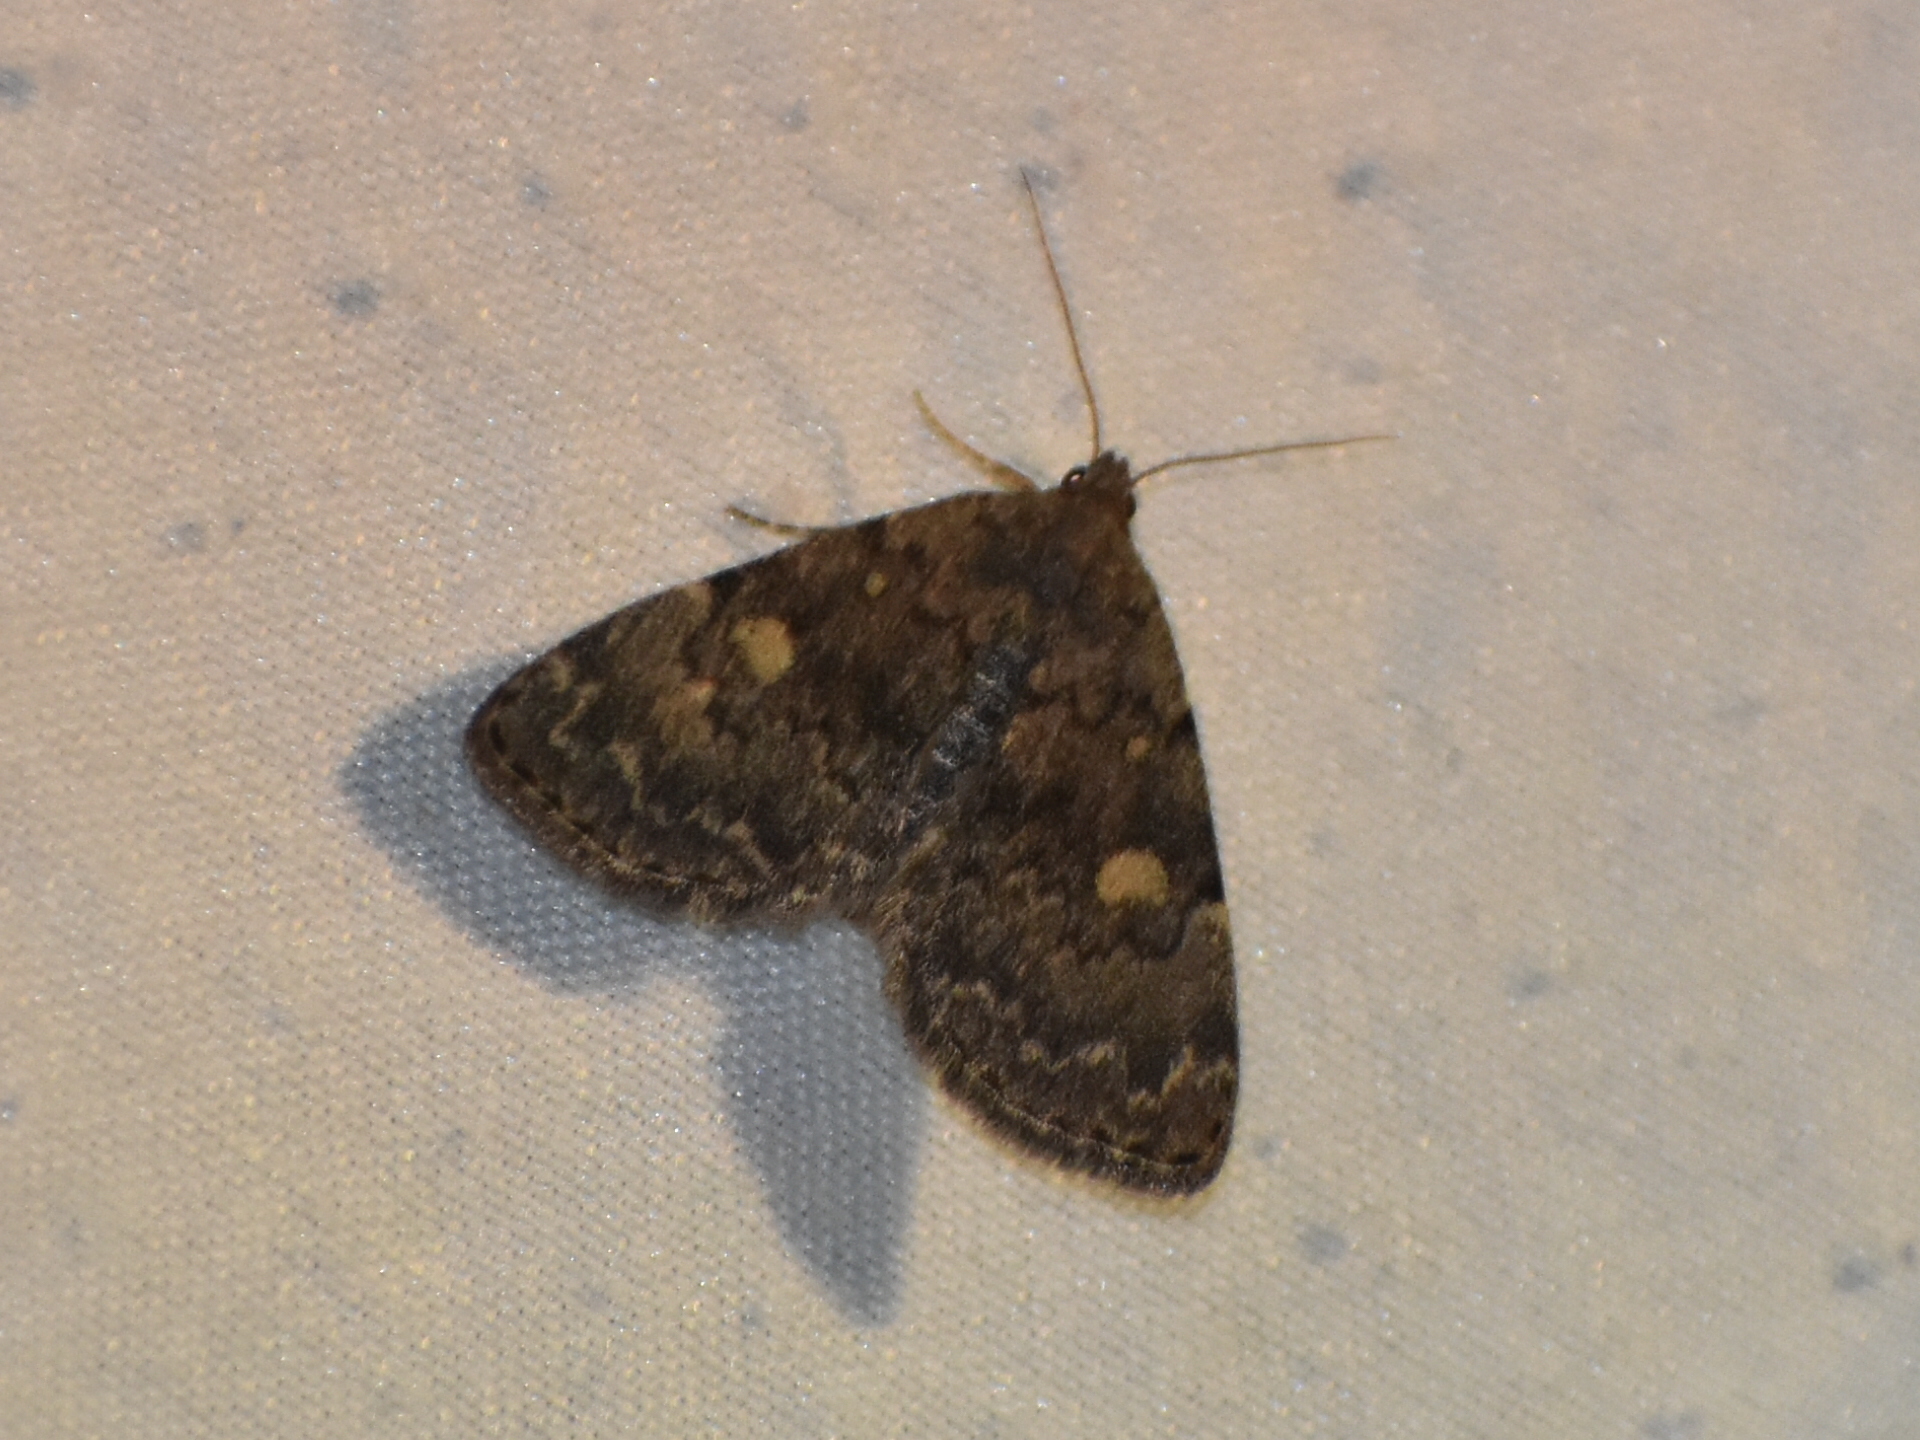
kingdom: Animalia
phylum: Arthropoda
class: Insecta
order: Lepidoptera
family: Erebidae
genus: Idia
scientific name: Idia aemula
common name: Common idia moth
